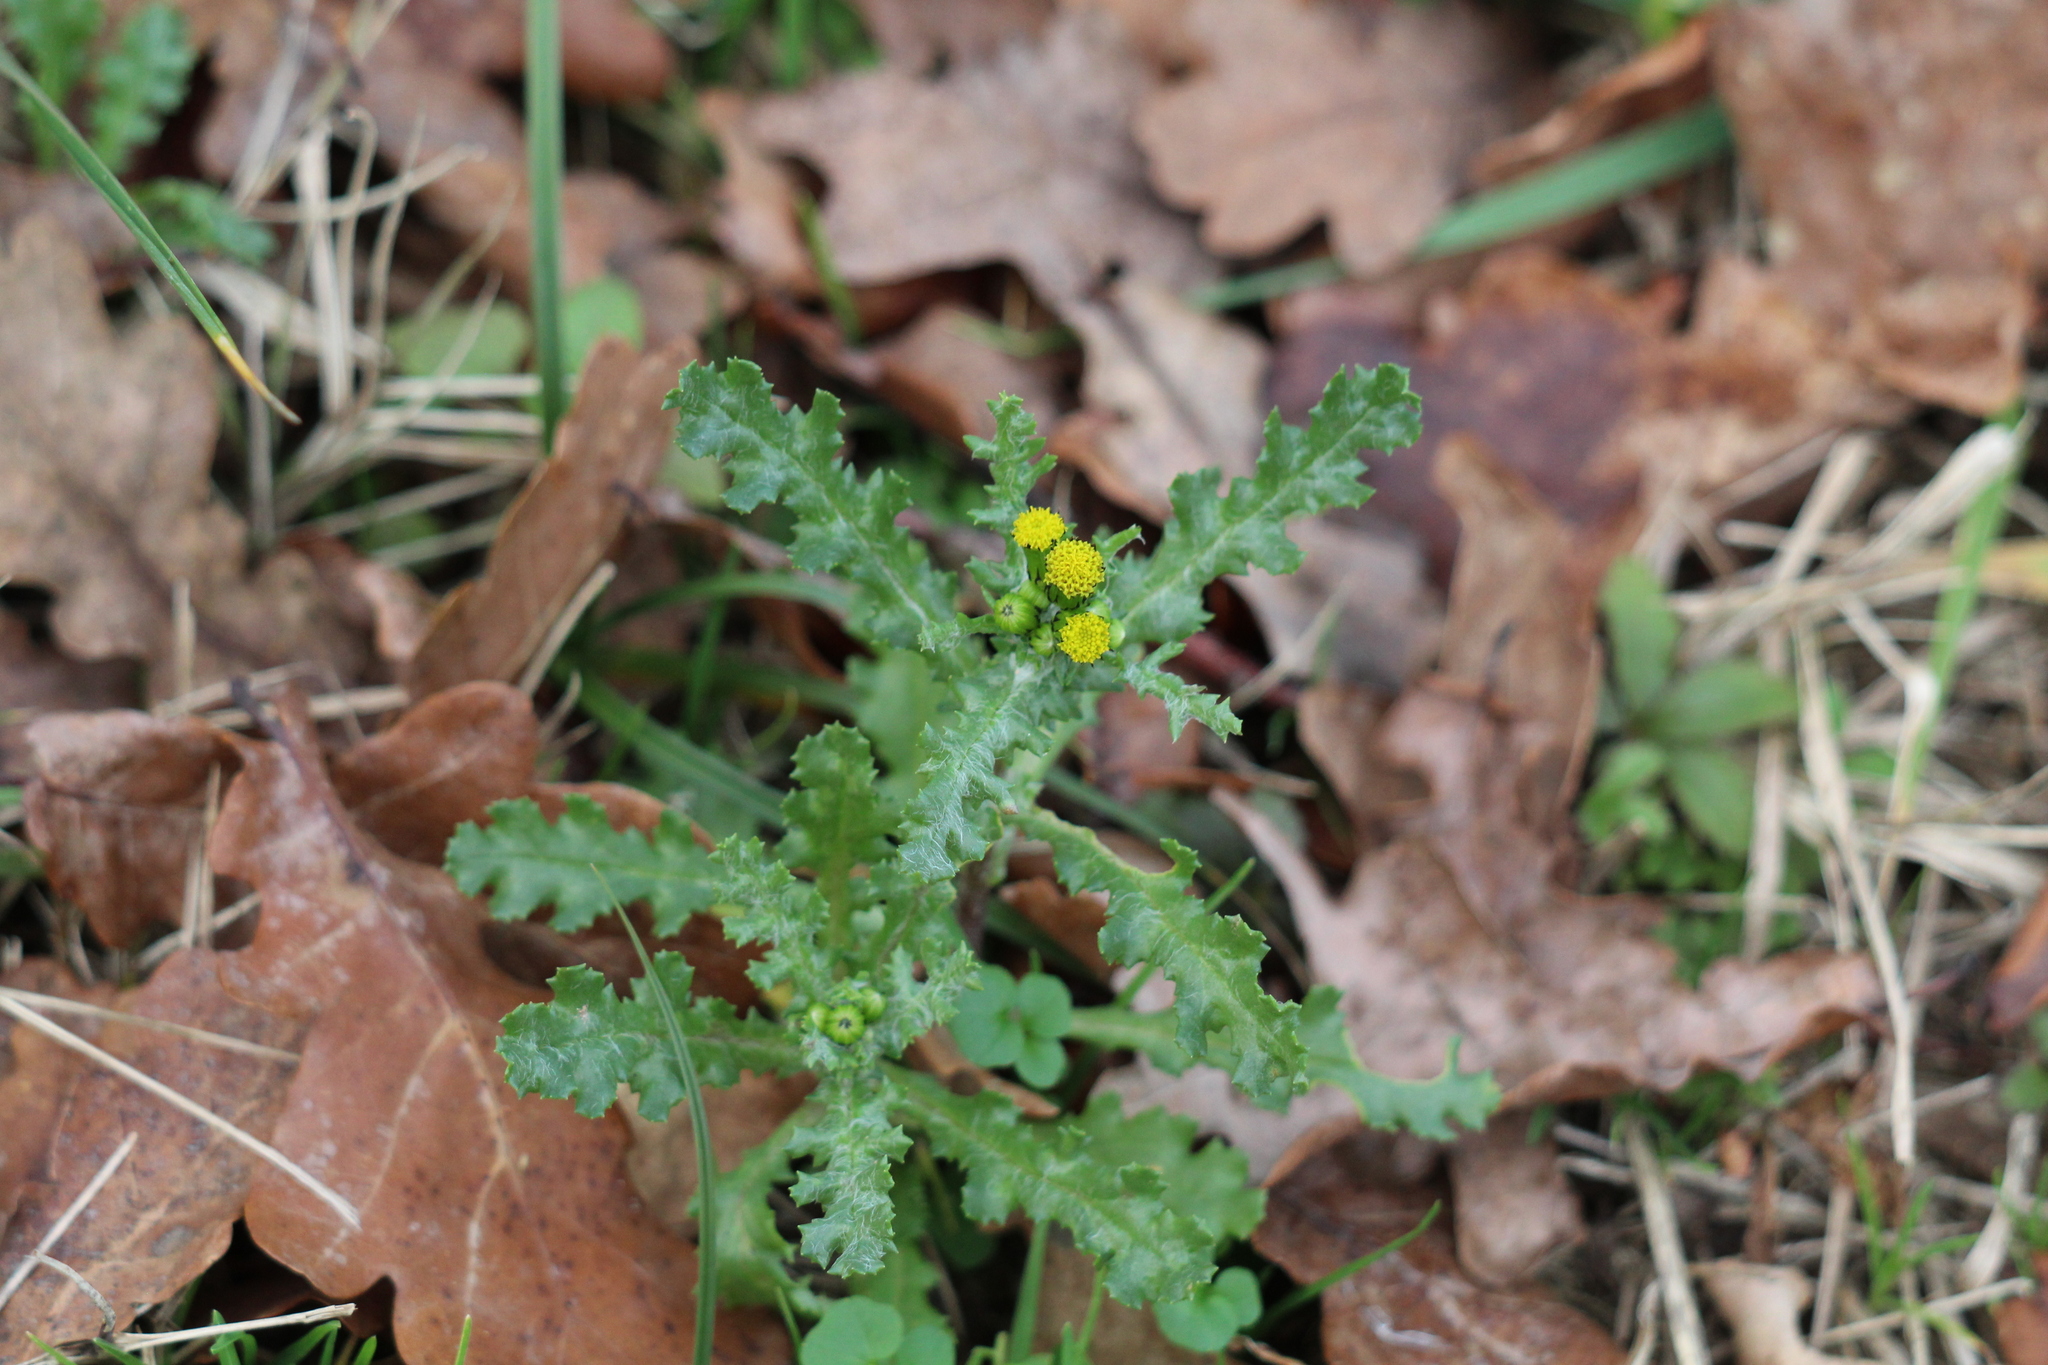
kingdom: Plantae
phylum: Tracheophyta
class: Magnoliopsida
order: Asterales
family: Asteraceae
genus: Senecio
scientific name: Senecio vulgaris
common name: Old-man-in-the-spring
